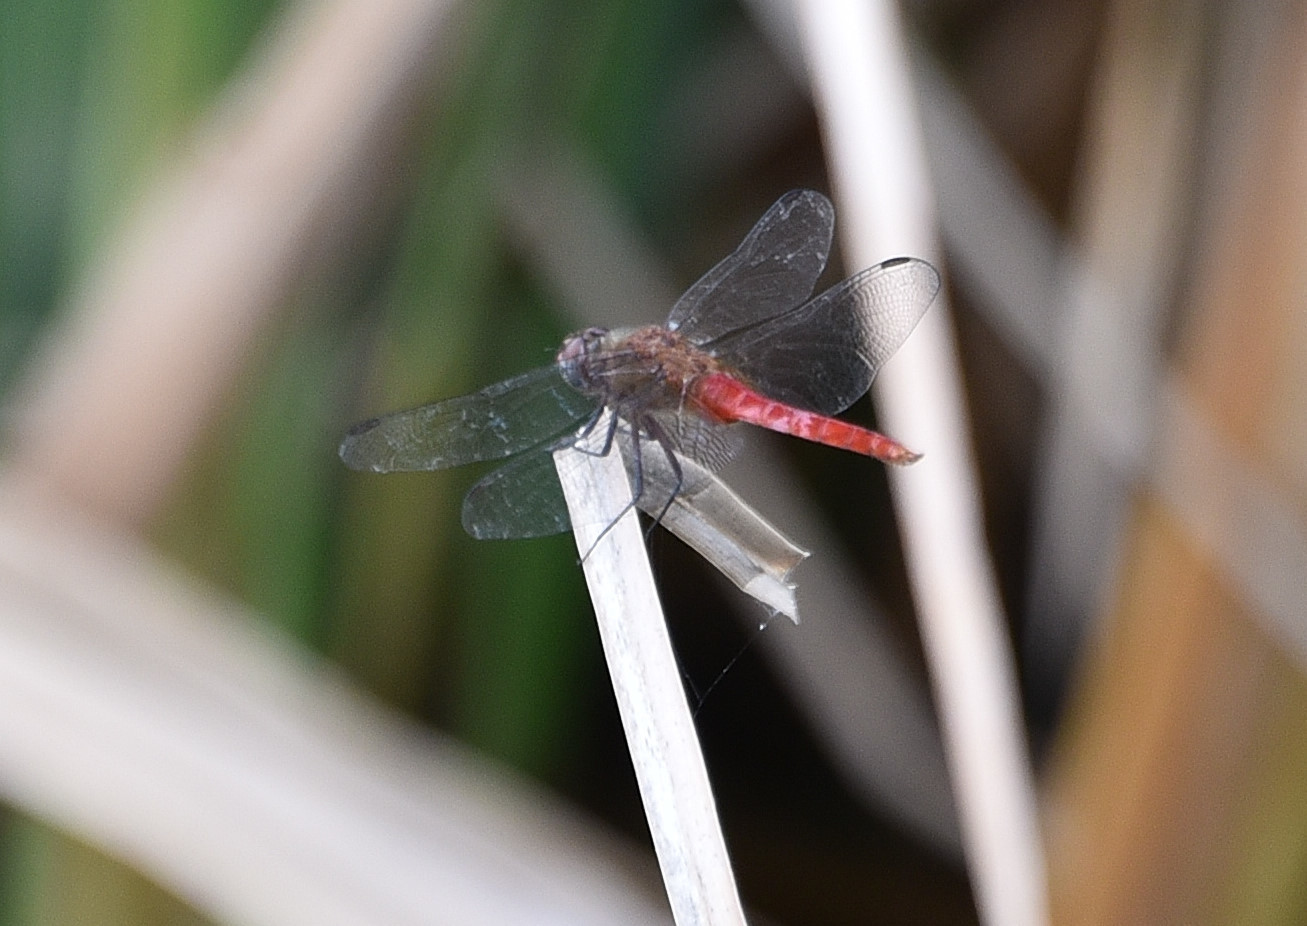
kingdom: Animalia
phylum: Arthropoda
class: Insecta
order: Odonata
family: Libellulidae
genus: Brachymesia
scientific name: Brachymesia furcata
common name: Red-taled pennant
